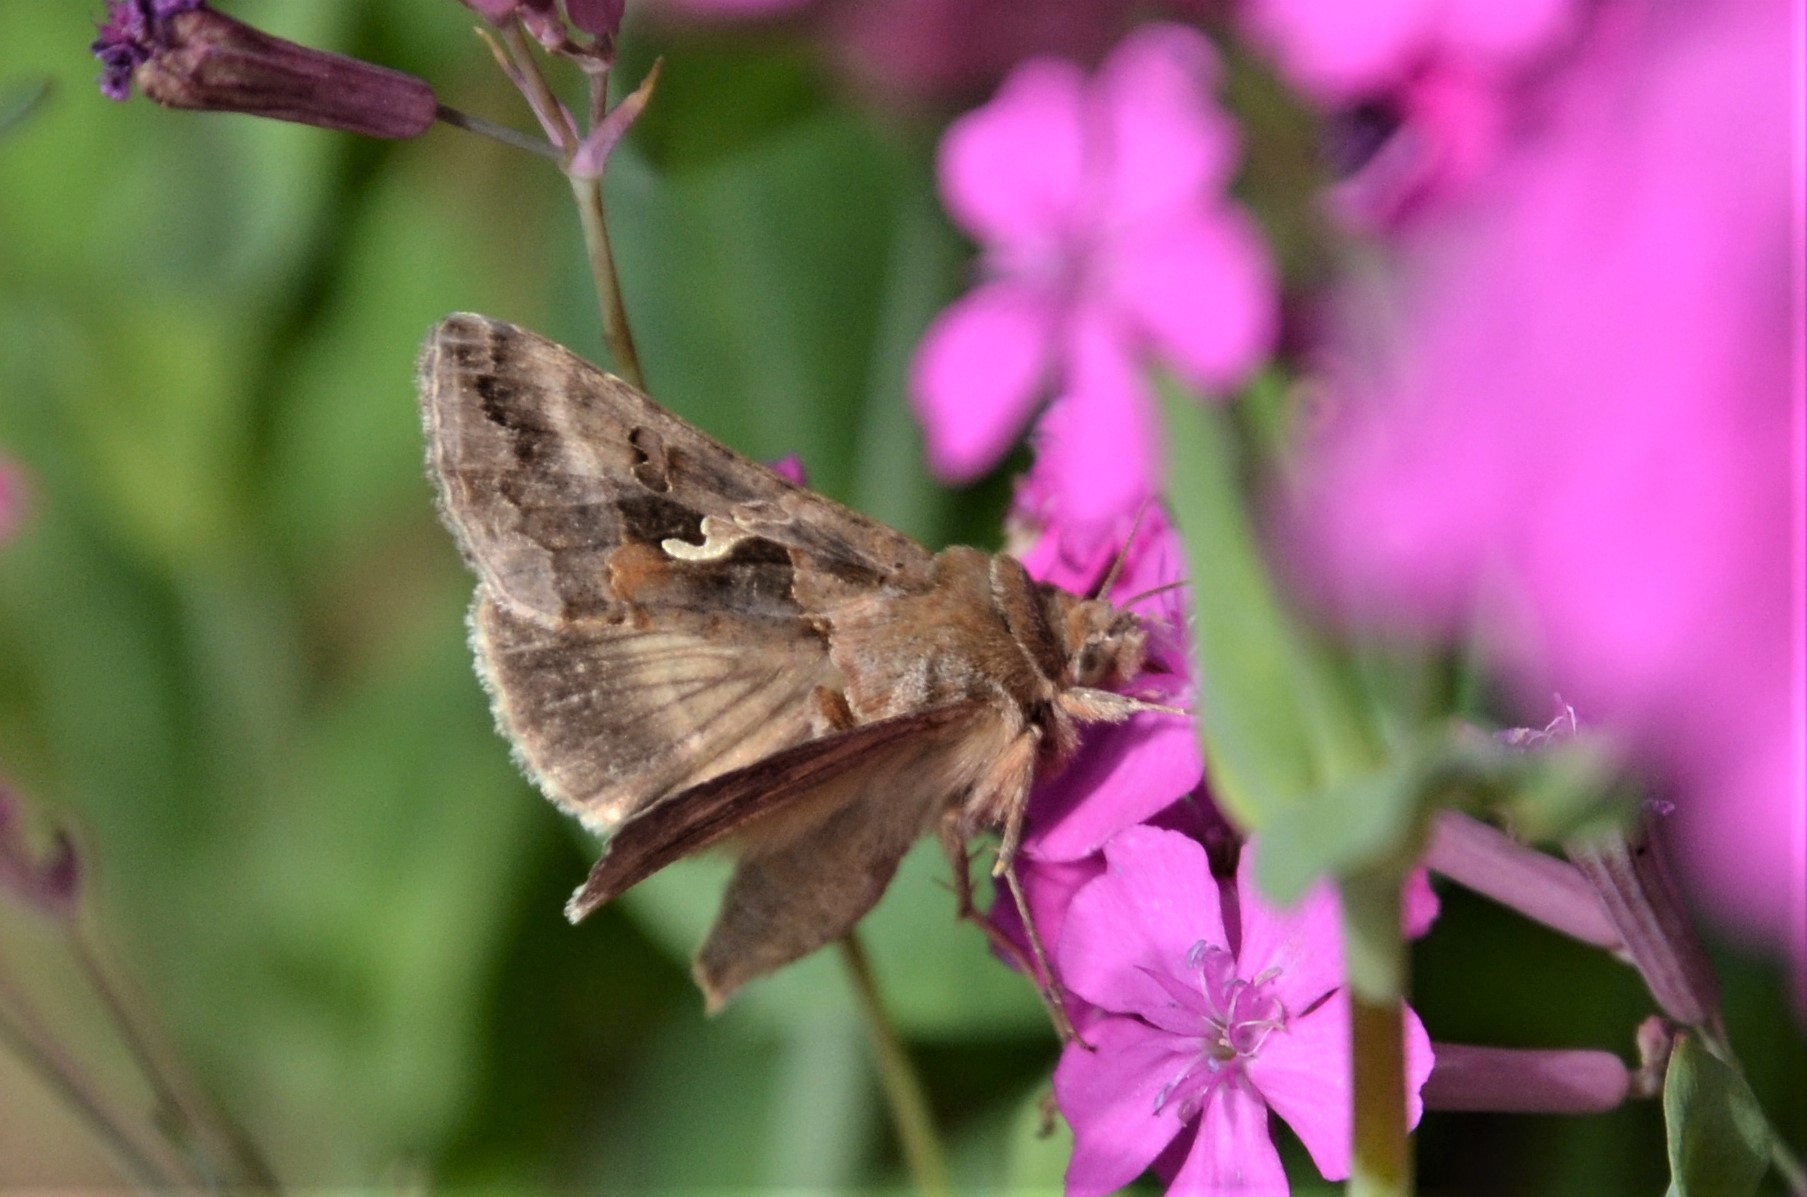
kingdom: Animalia
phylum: Arthropoda
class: Insecta
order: Lepidoptera
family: Noctuidae
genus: Autographa
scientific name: Autographa gamma
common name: Silver y
